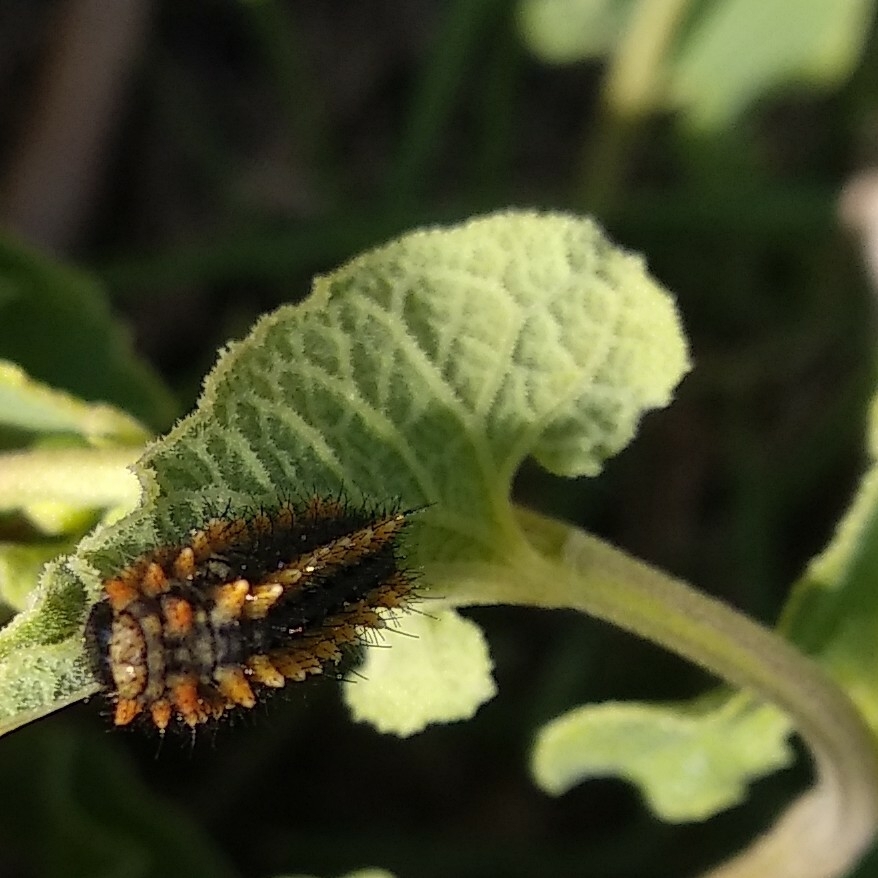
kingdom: Animalia
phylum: Arthropoda
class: Insecta
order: Lepidoptera
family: Papilionidae
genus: Zerynthia
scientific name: Zerynthia rumina
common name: Spanish festoon
